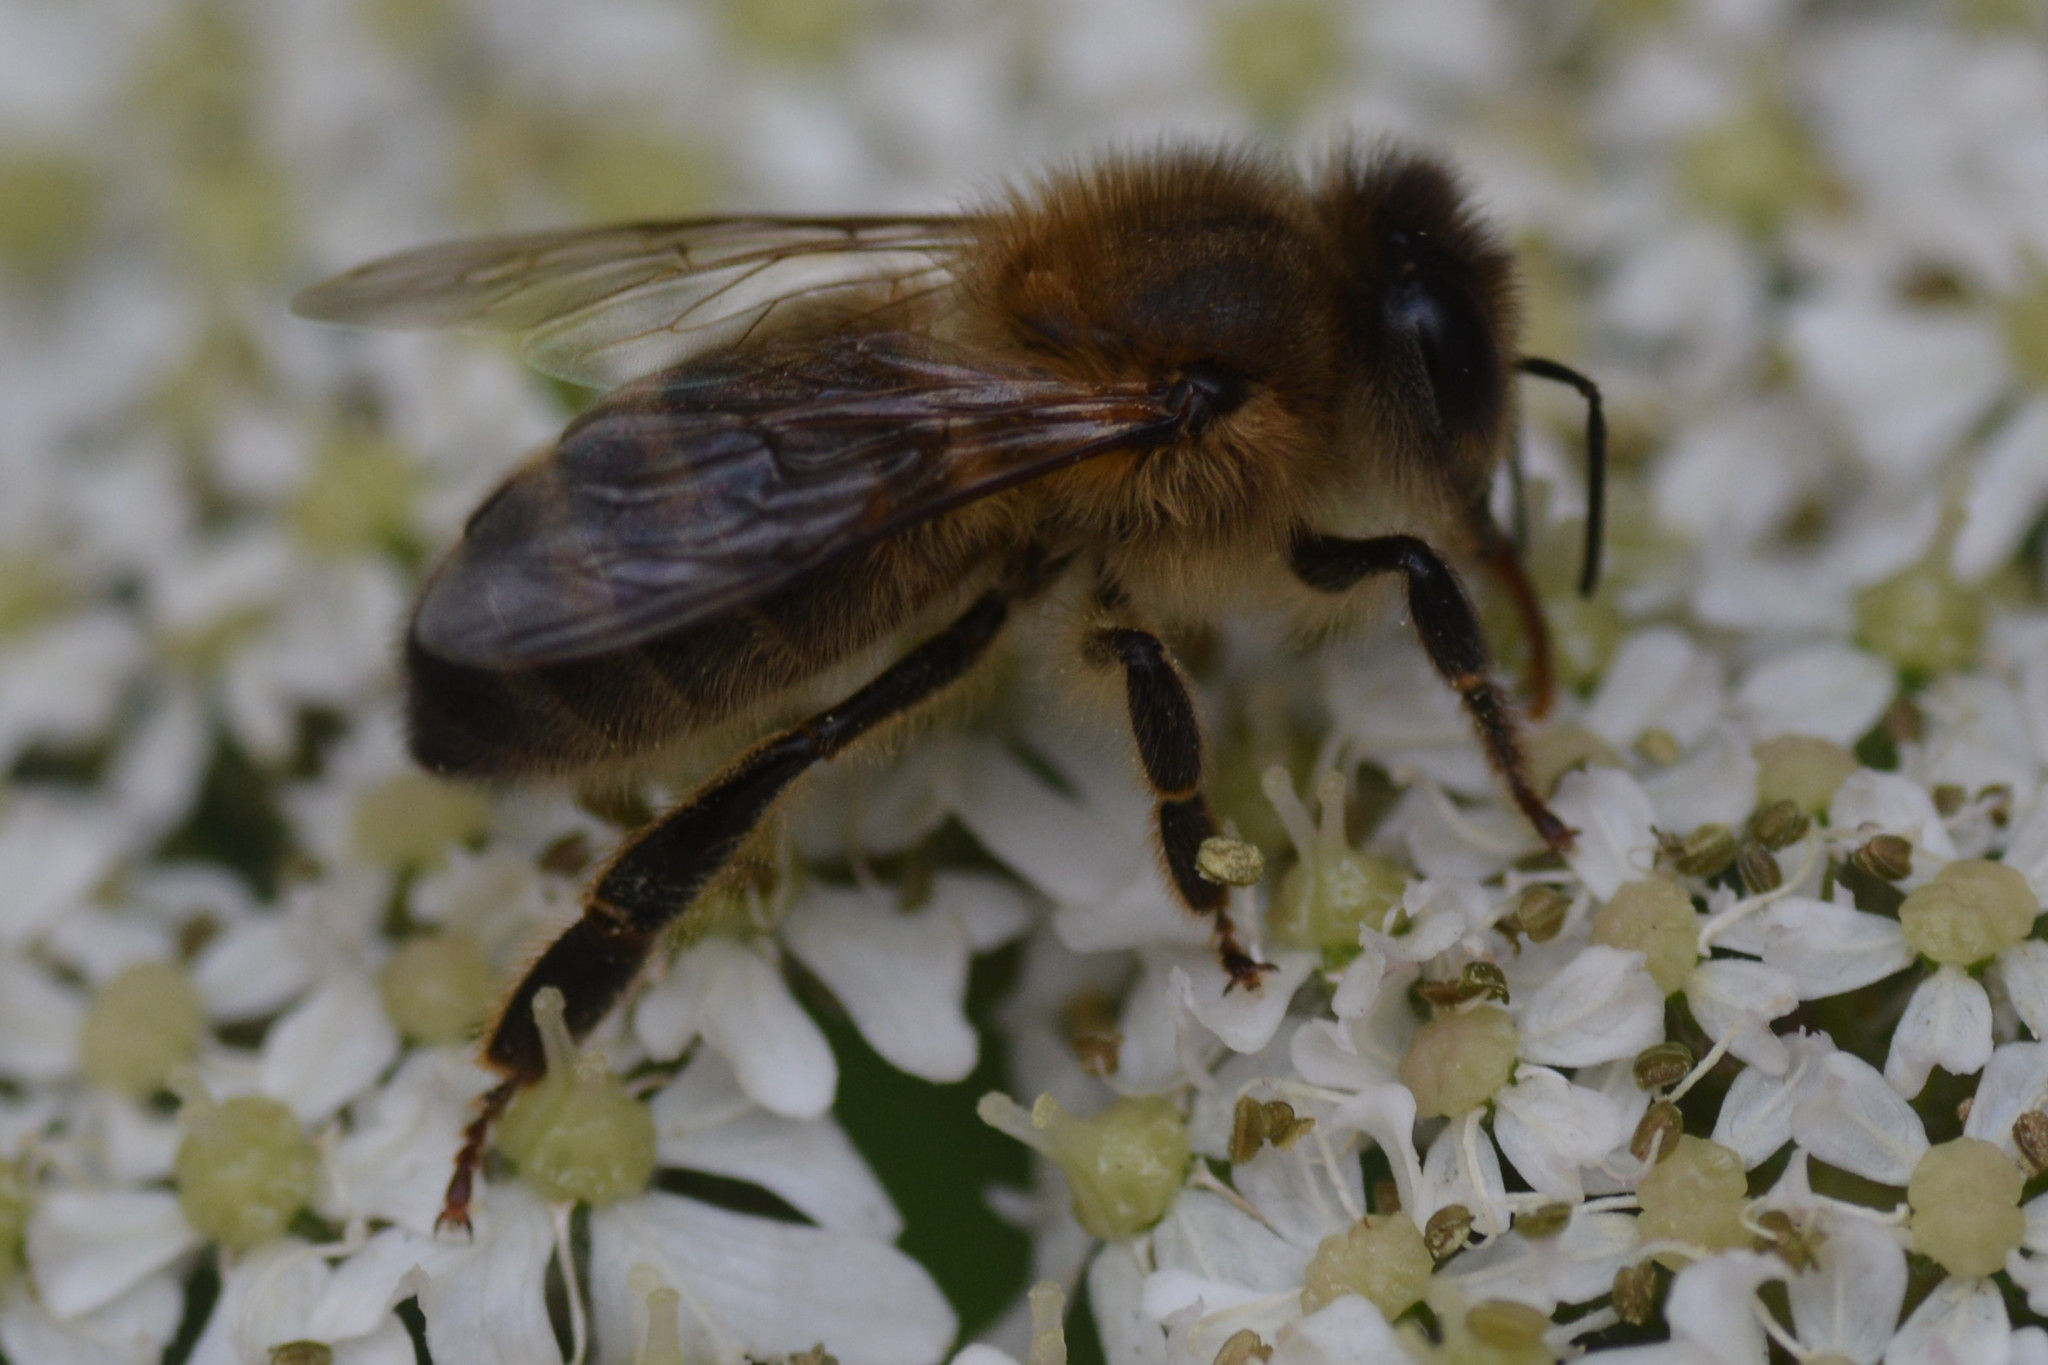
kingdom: Animalia
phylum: Arthropoda
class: Insecta
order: Hymenoptera
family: Apidae
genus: Apis
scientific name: Apis mellifera
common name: Honey bee
